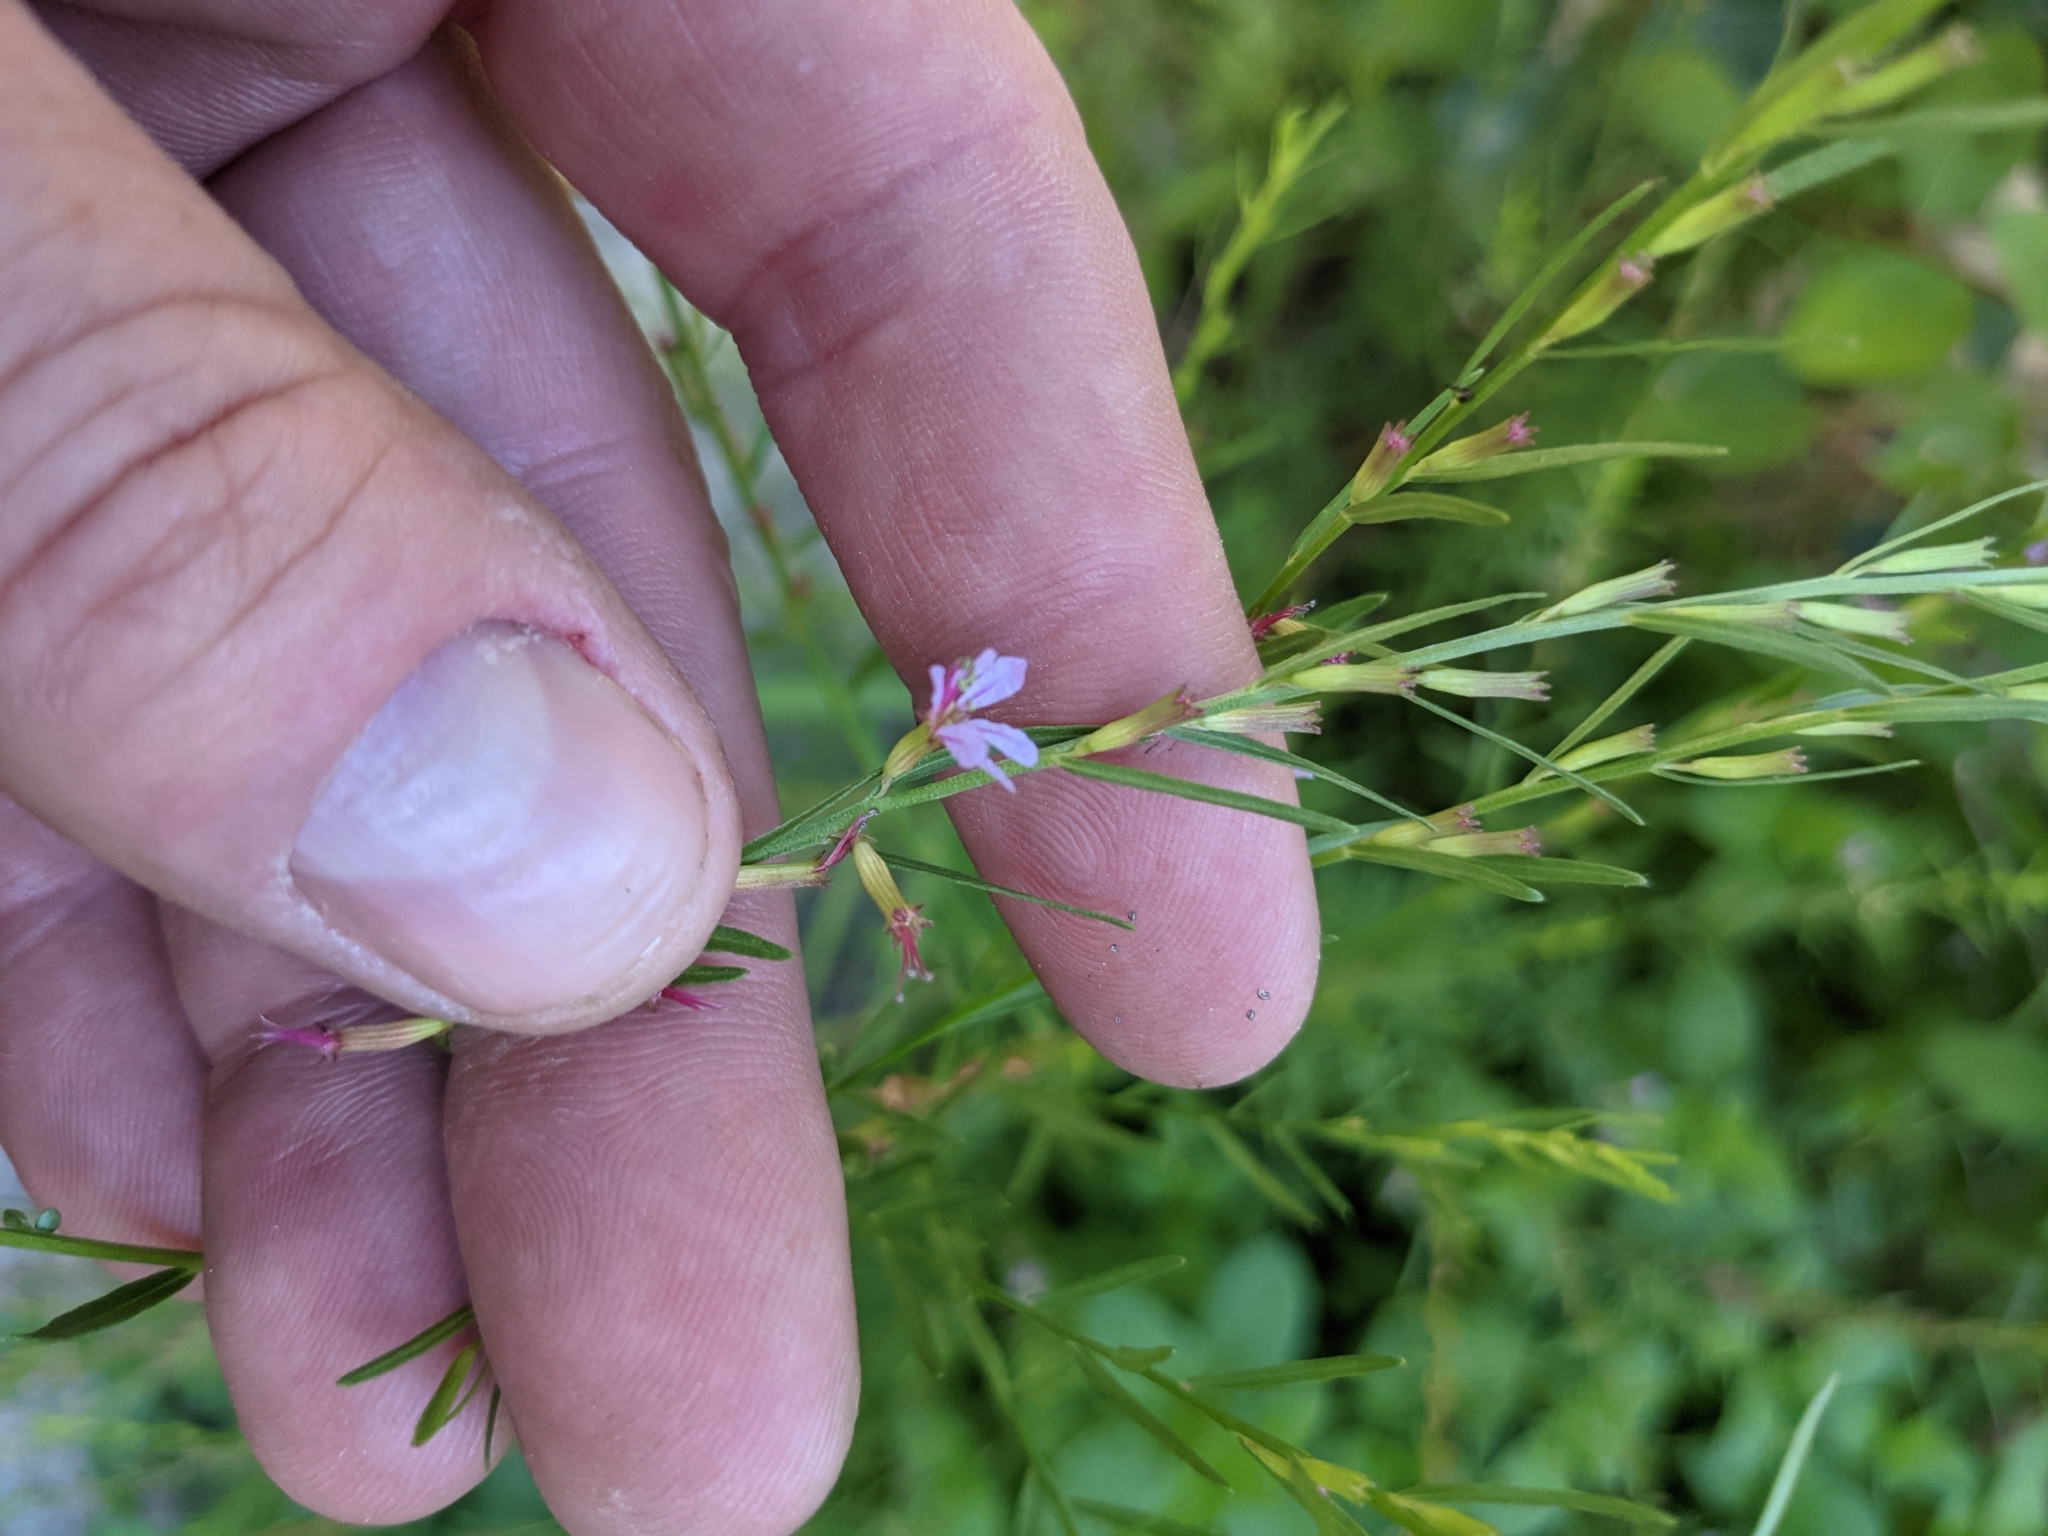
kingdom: Plantae
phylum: Tracheophyta
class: Magnoliopsida
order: Myrtales
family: Lythraceae
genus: Lythrum
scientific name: Lythrum californicum
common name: California loosestrife
